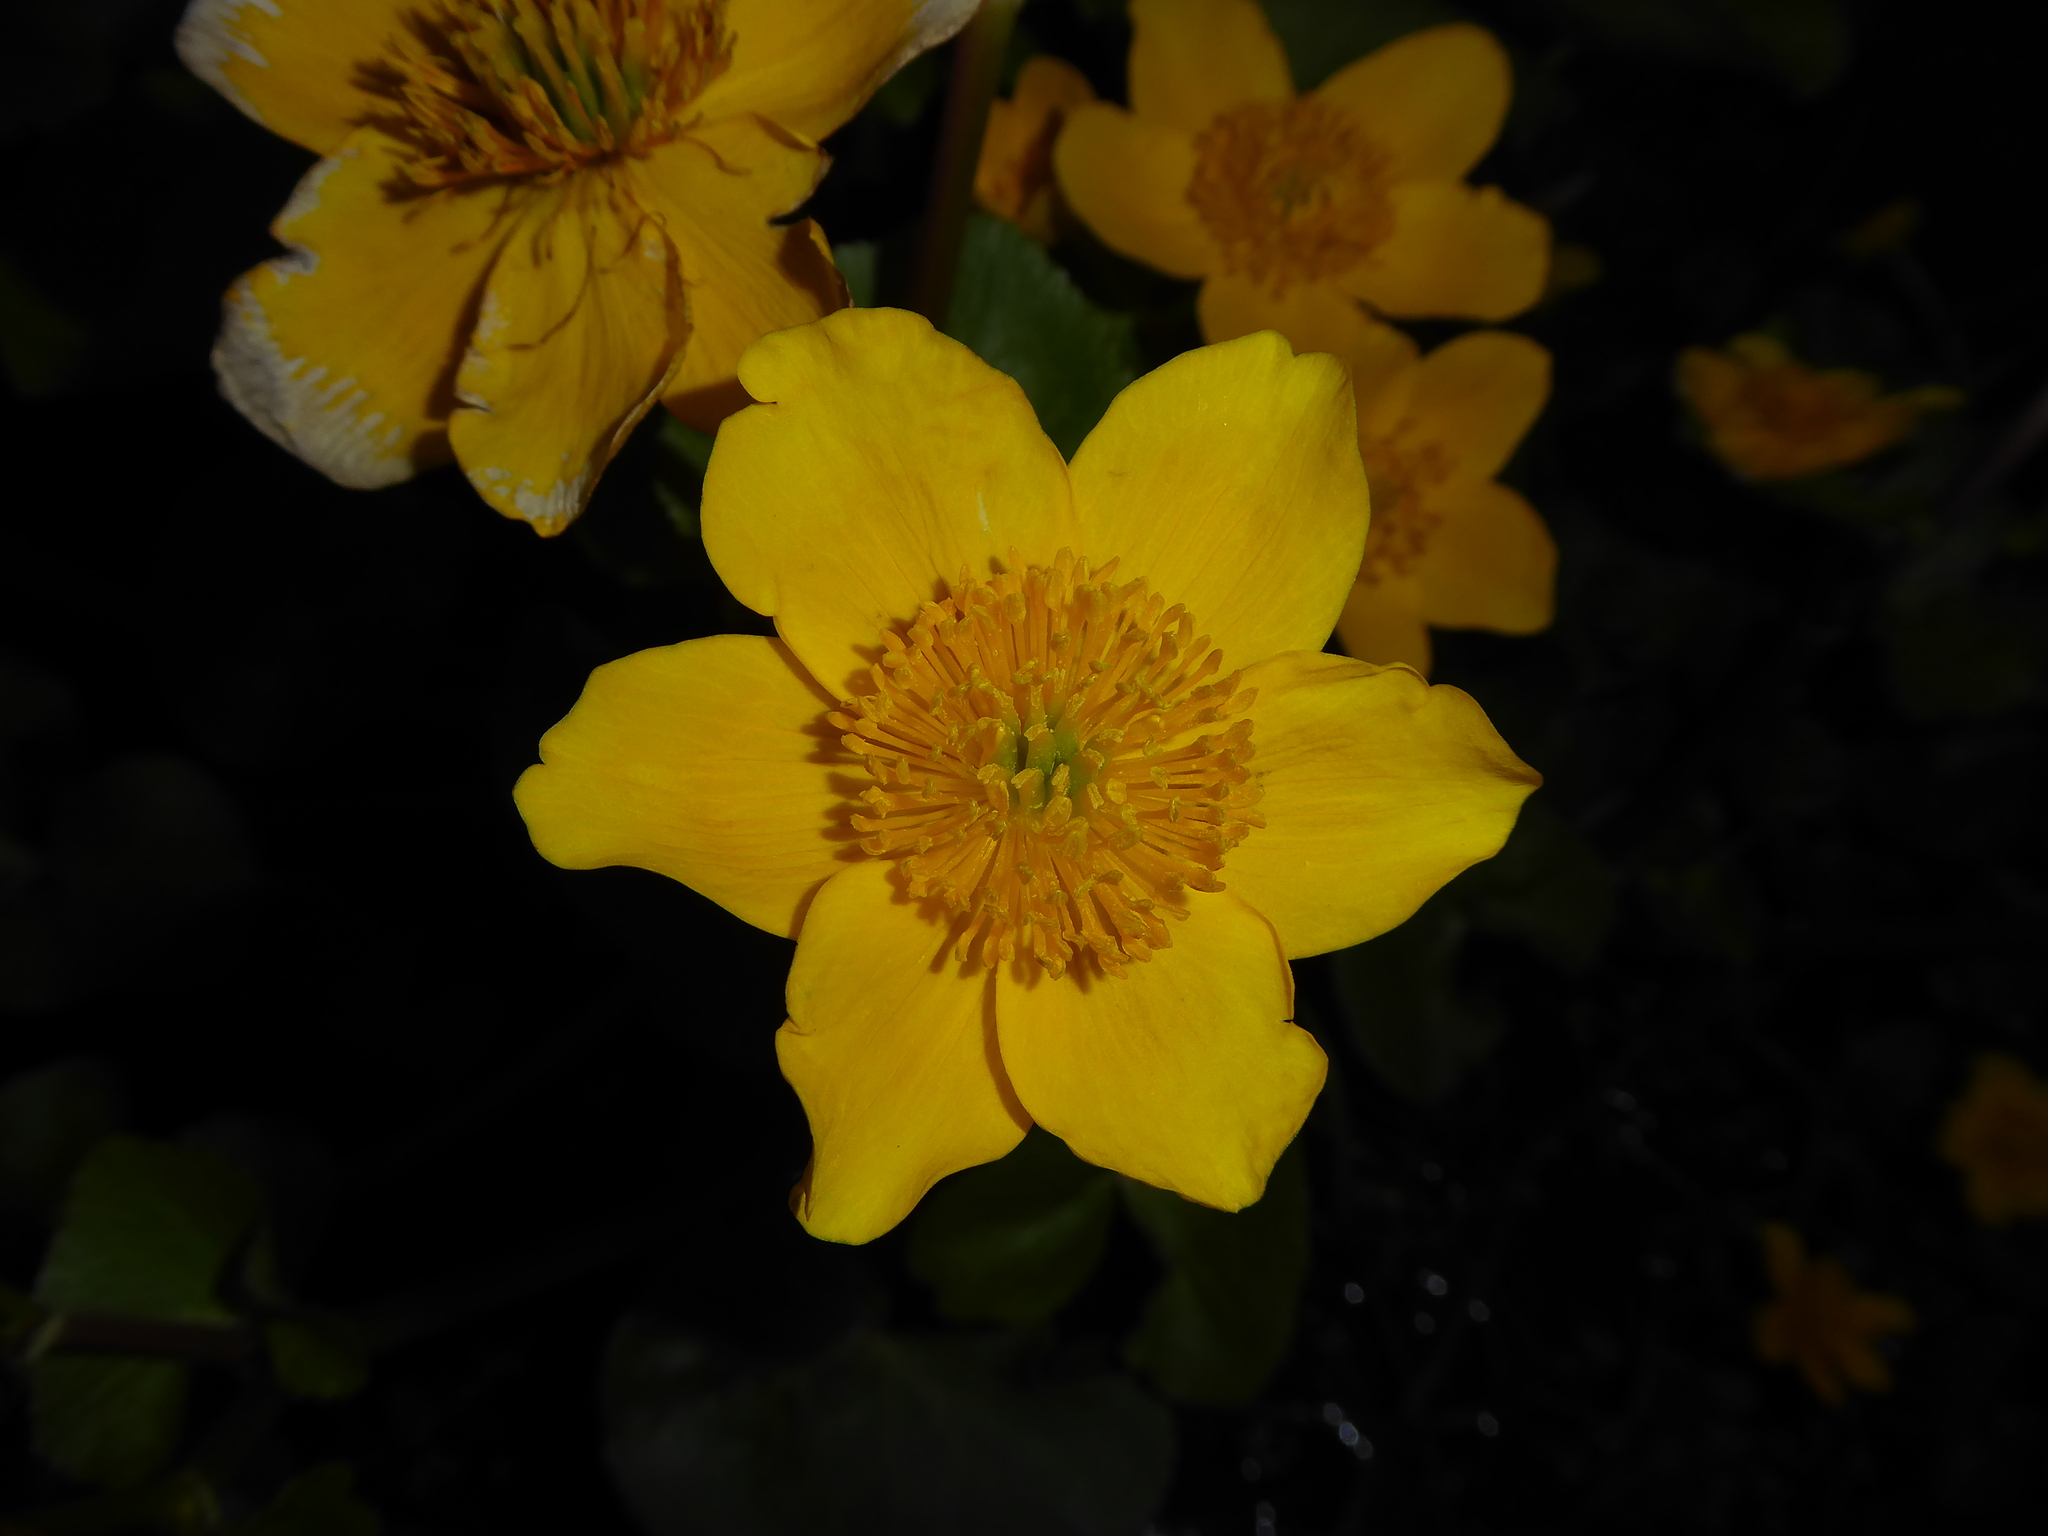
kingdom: Plantae
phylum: Tracheophyta
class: Magnoliopsida
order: Ranunculales
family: Ranunculaceae
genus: Caltha
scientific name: Caltha palustris
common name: Marsh marigold
